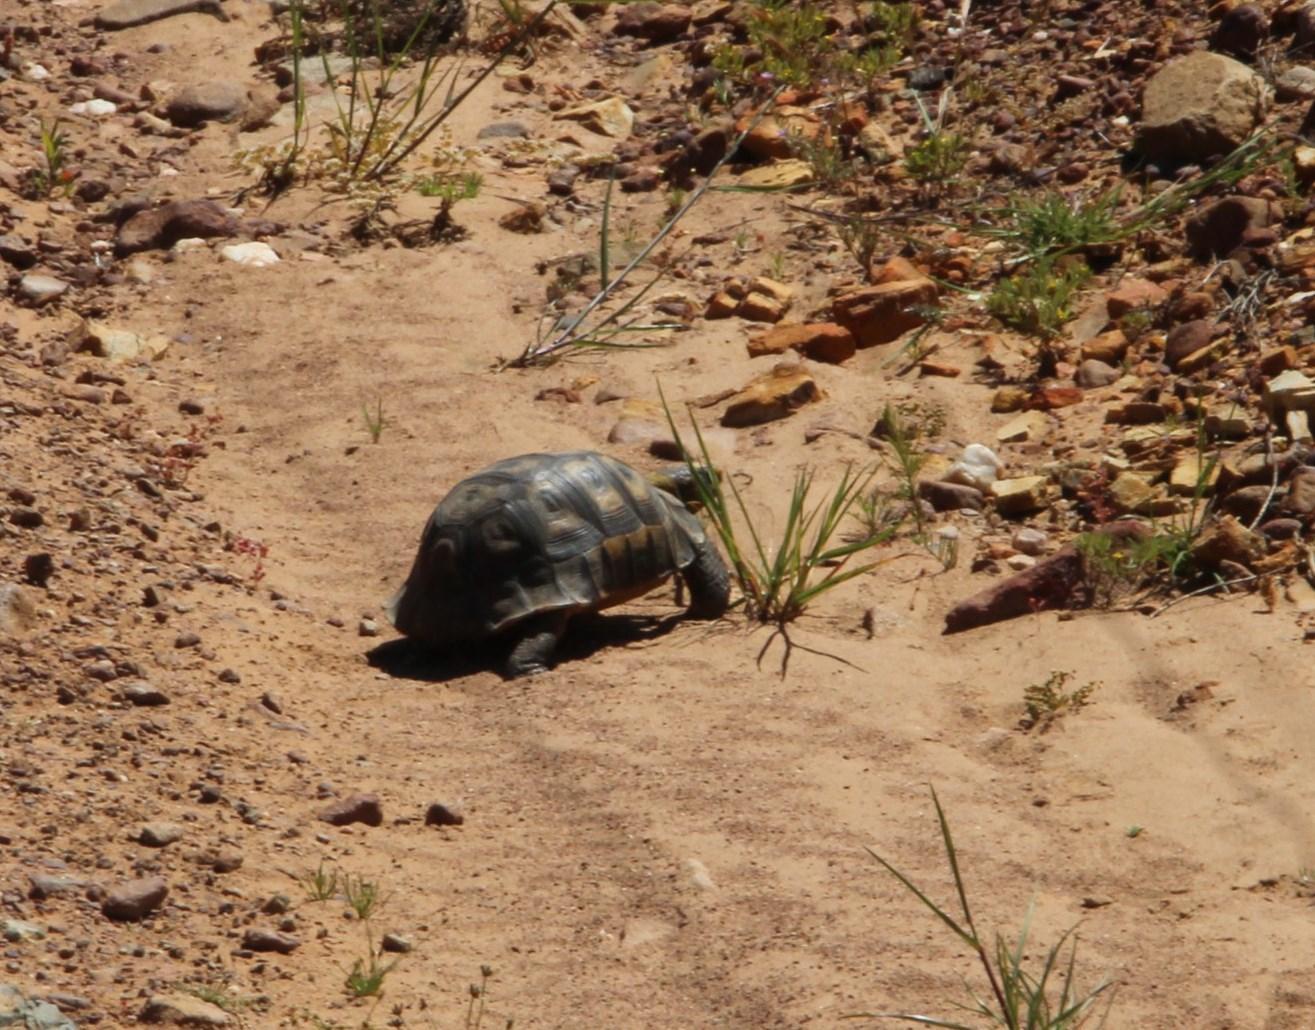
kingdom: Animalia
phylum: Chordata
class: Testudines
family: Testudinidae
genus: Chersina
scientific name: Chersina angulata
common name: South african bowsprit tortoise
